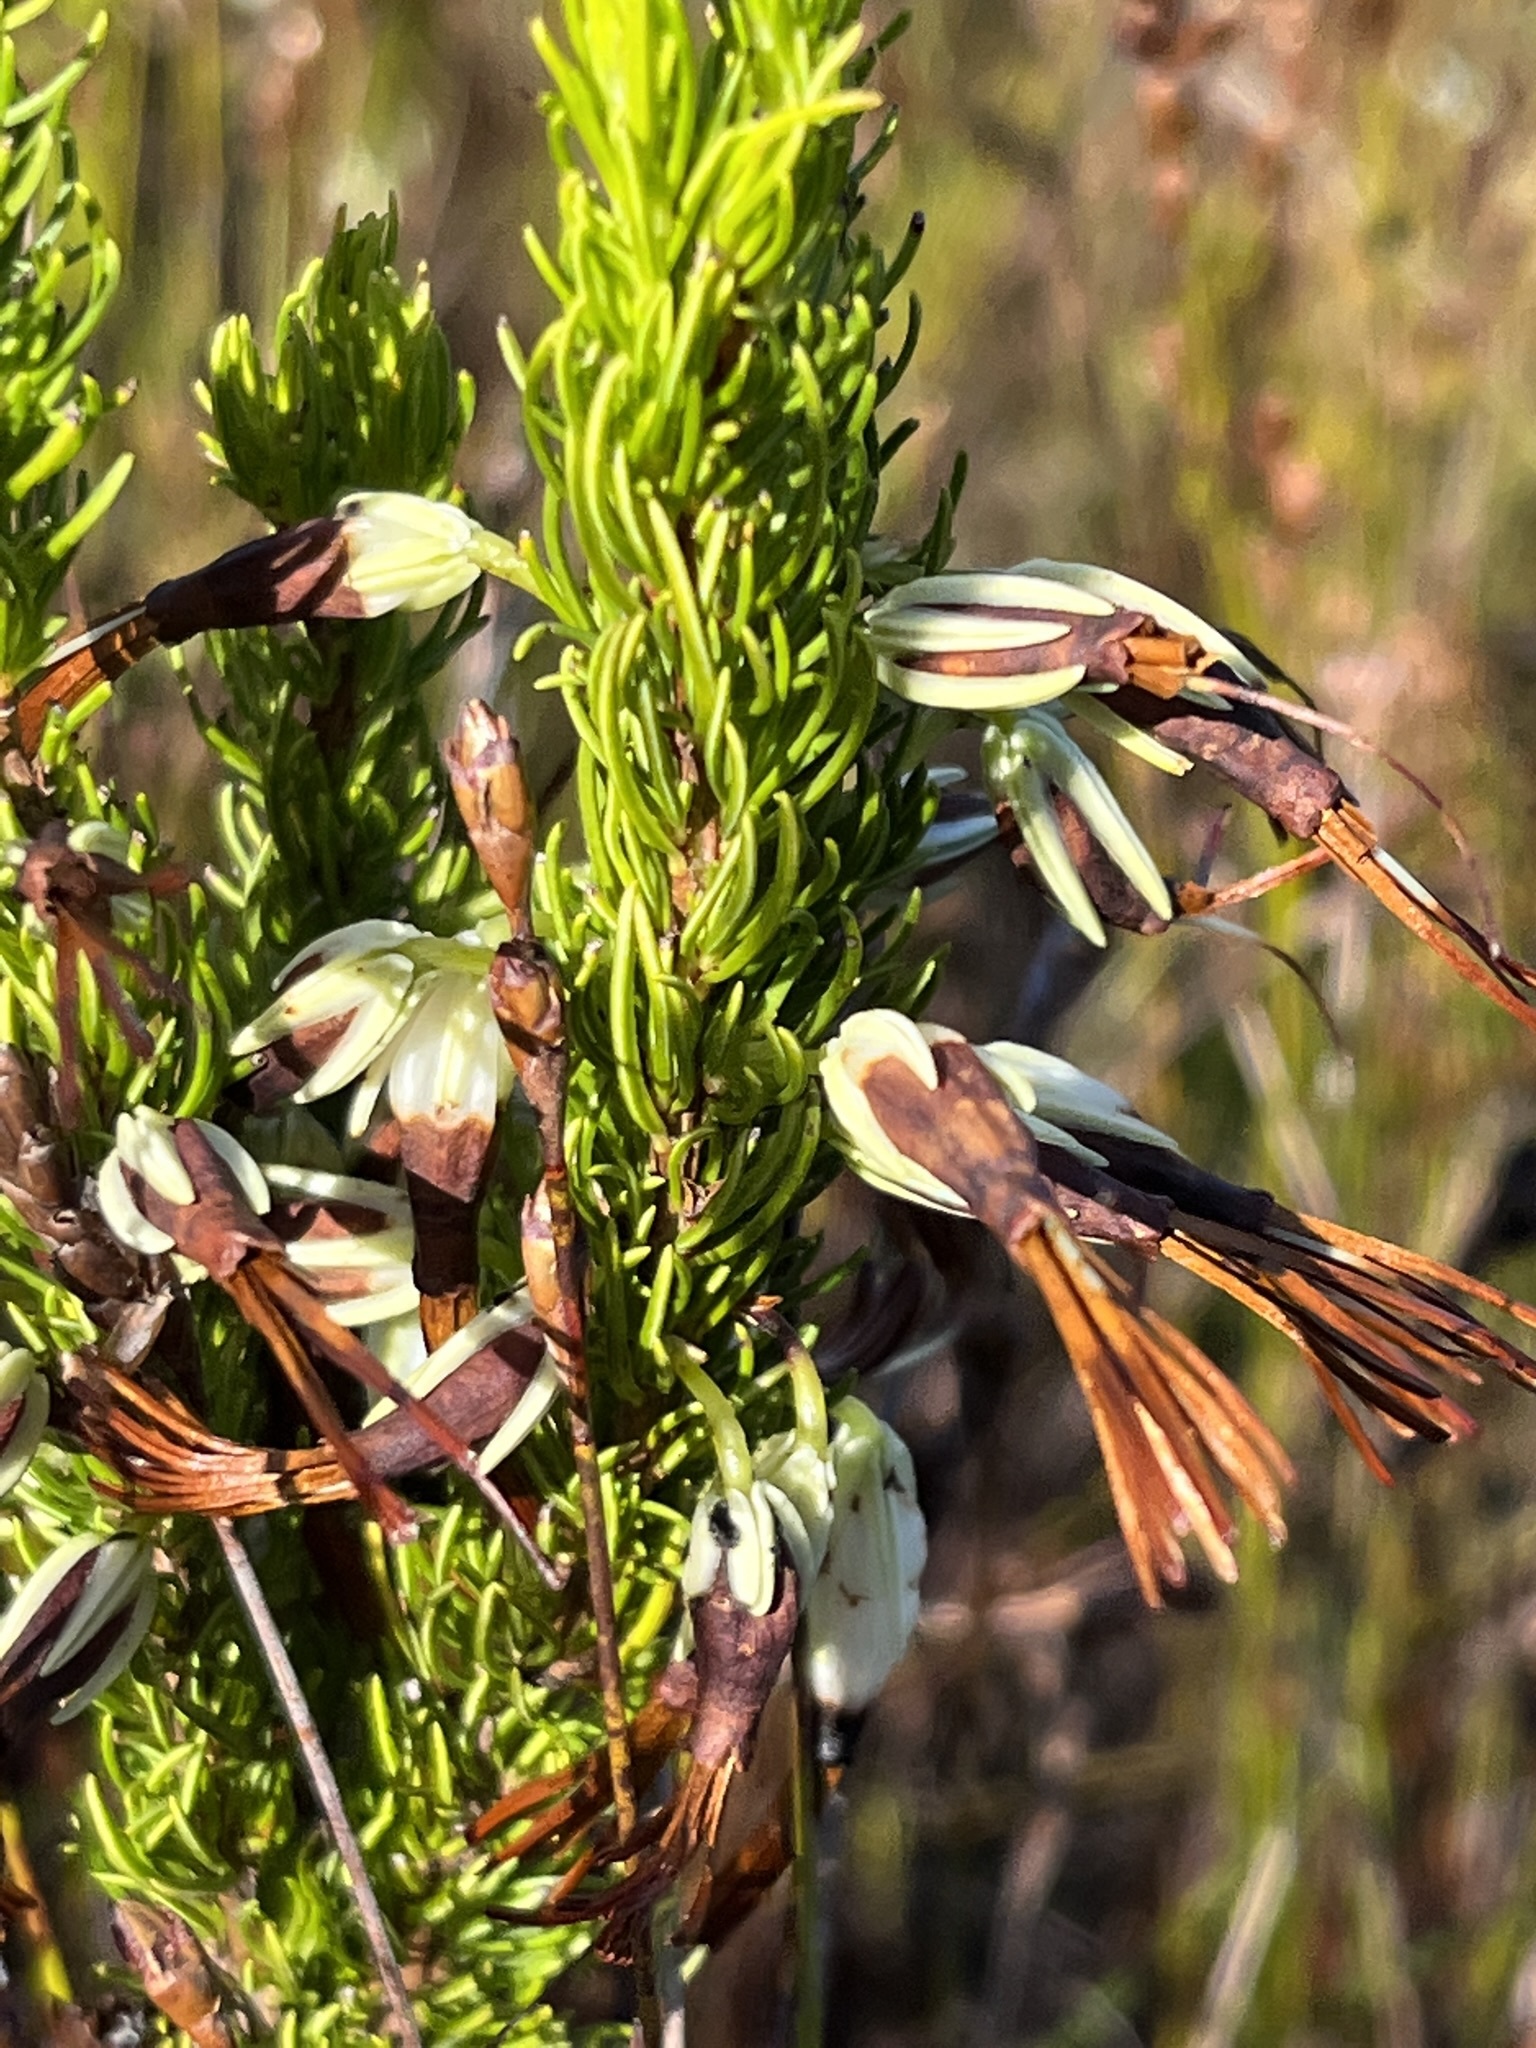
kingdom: Plantae
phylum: Tracheophyta
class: Magnoliopsida
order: Ericales
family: Ericaceae
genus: Erica
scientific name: Erica plukenetii
